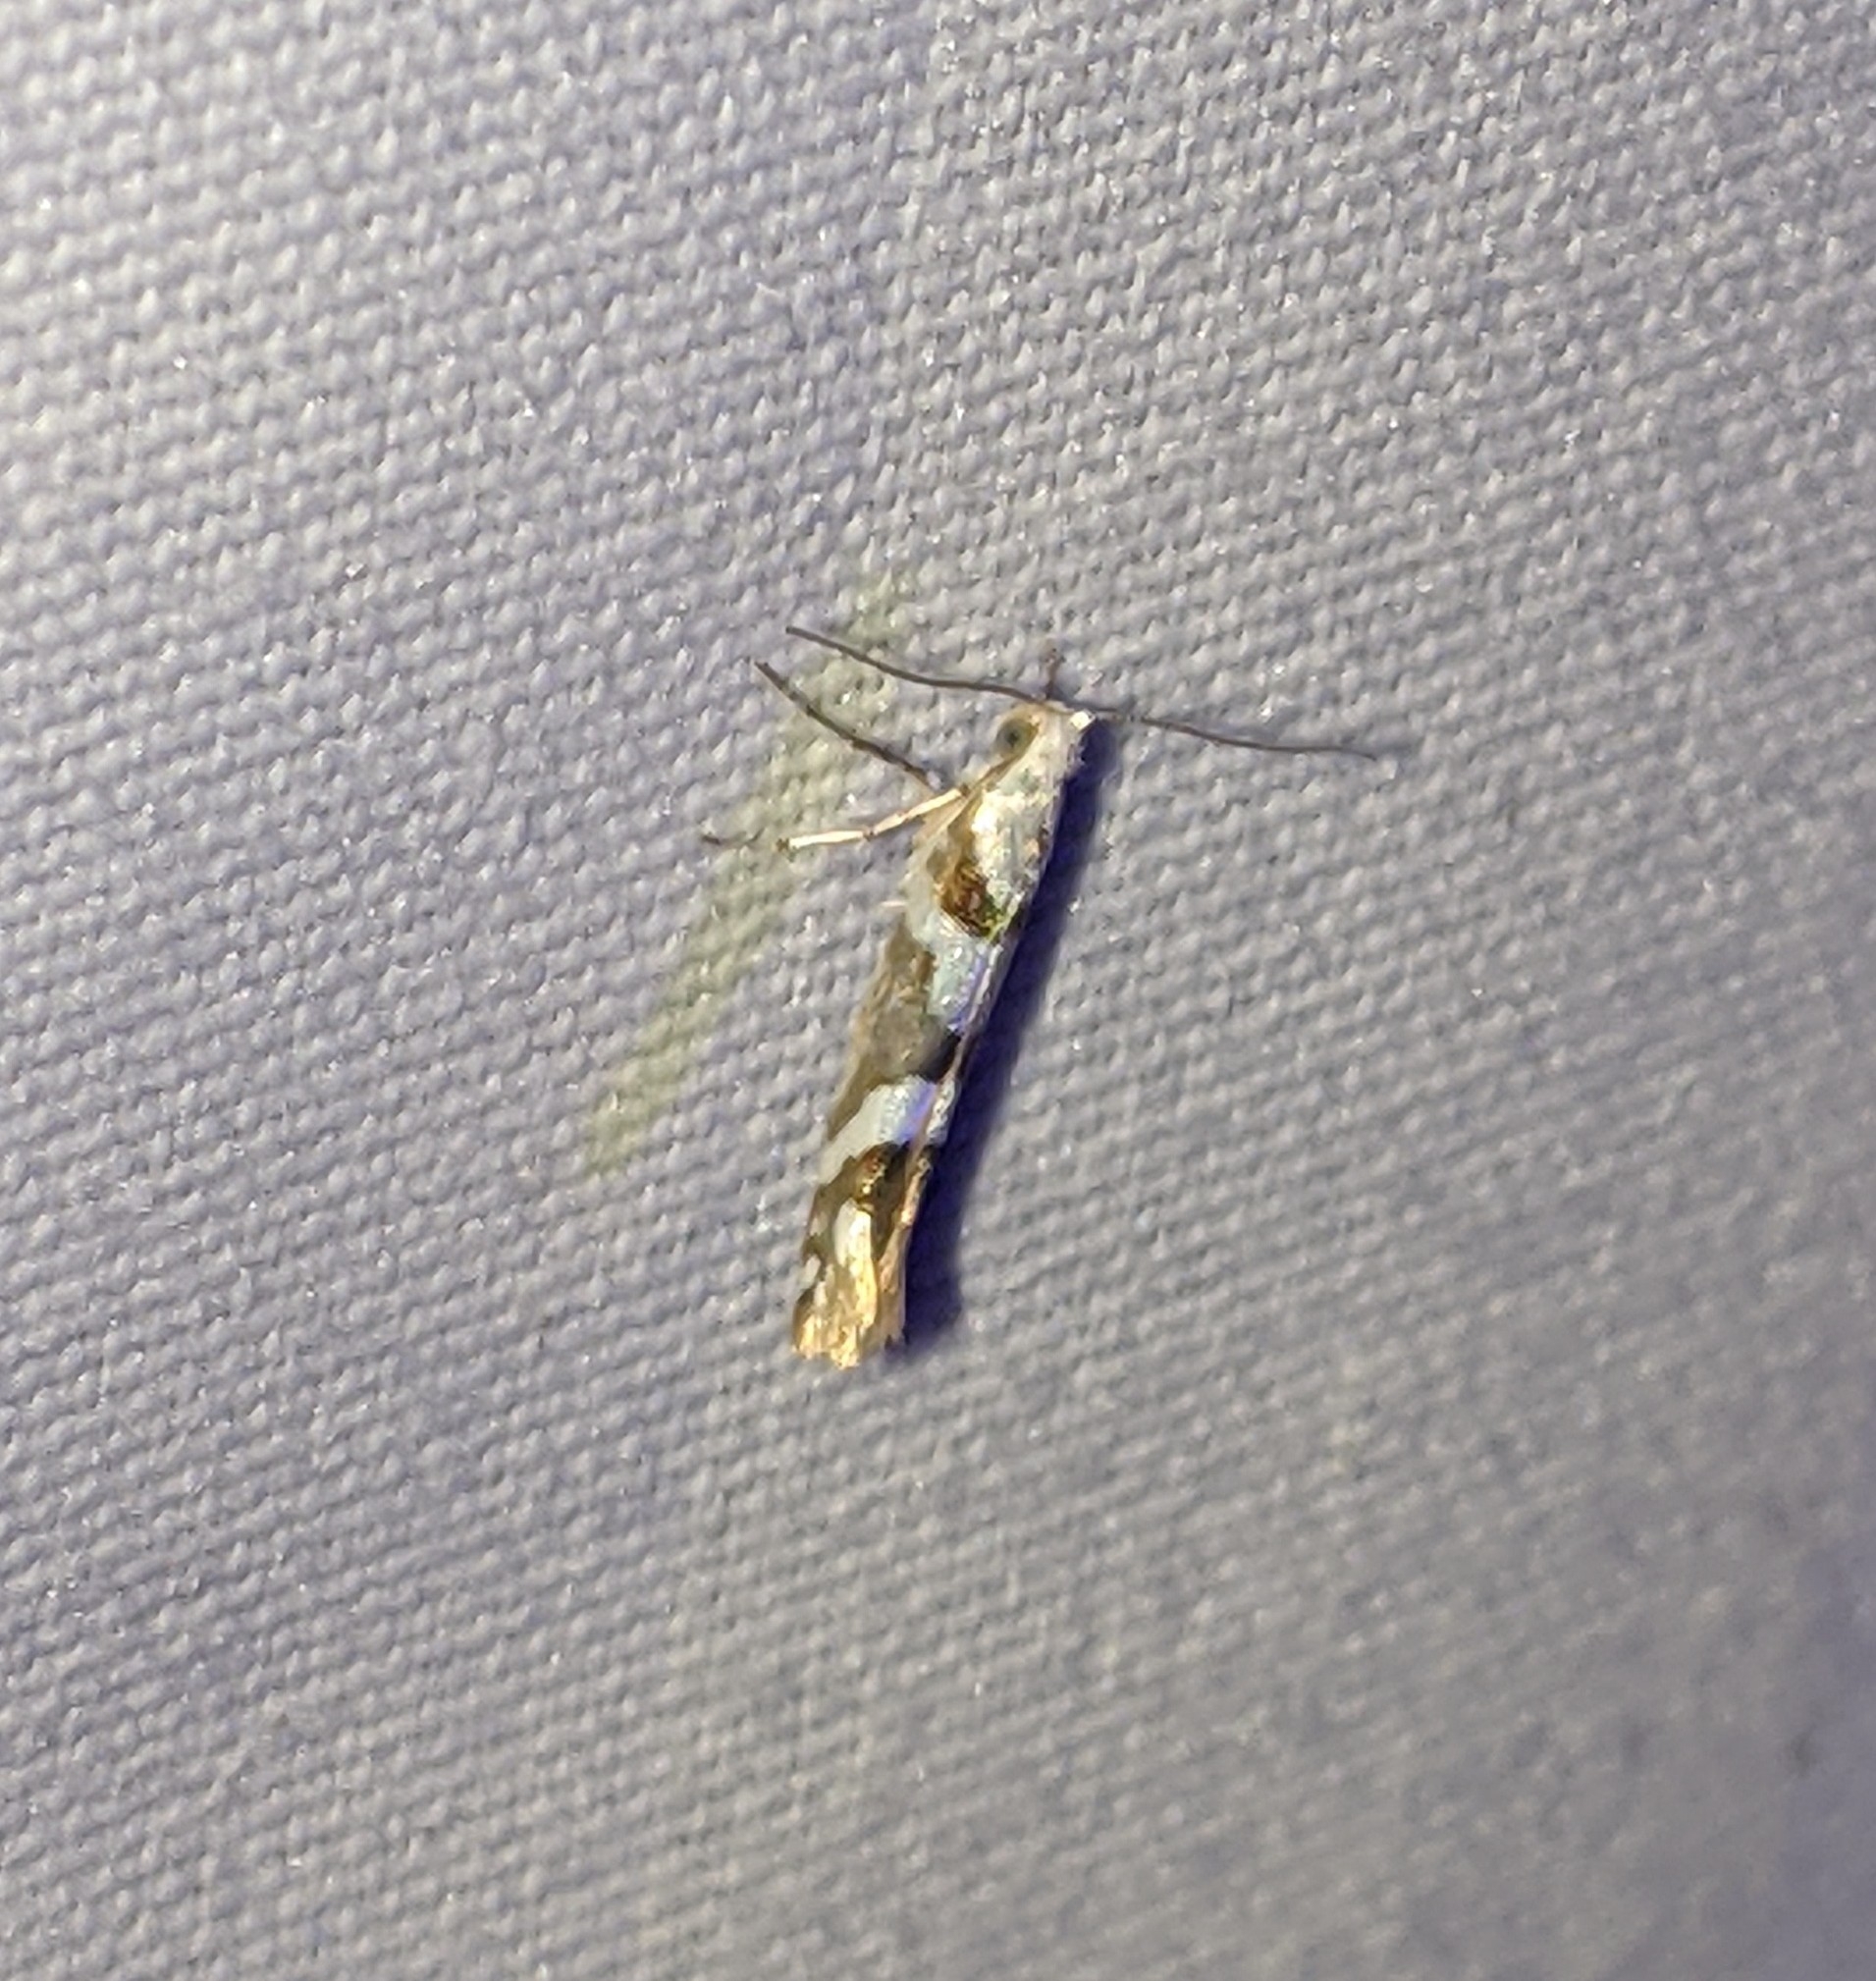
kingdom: Animalia
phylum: Arthropoda
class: Insecta
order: Lepidoptera
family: Argyresthiidae
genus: Argyresthia
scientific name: Argyresthia calliphanes
